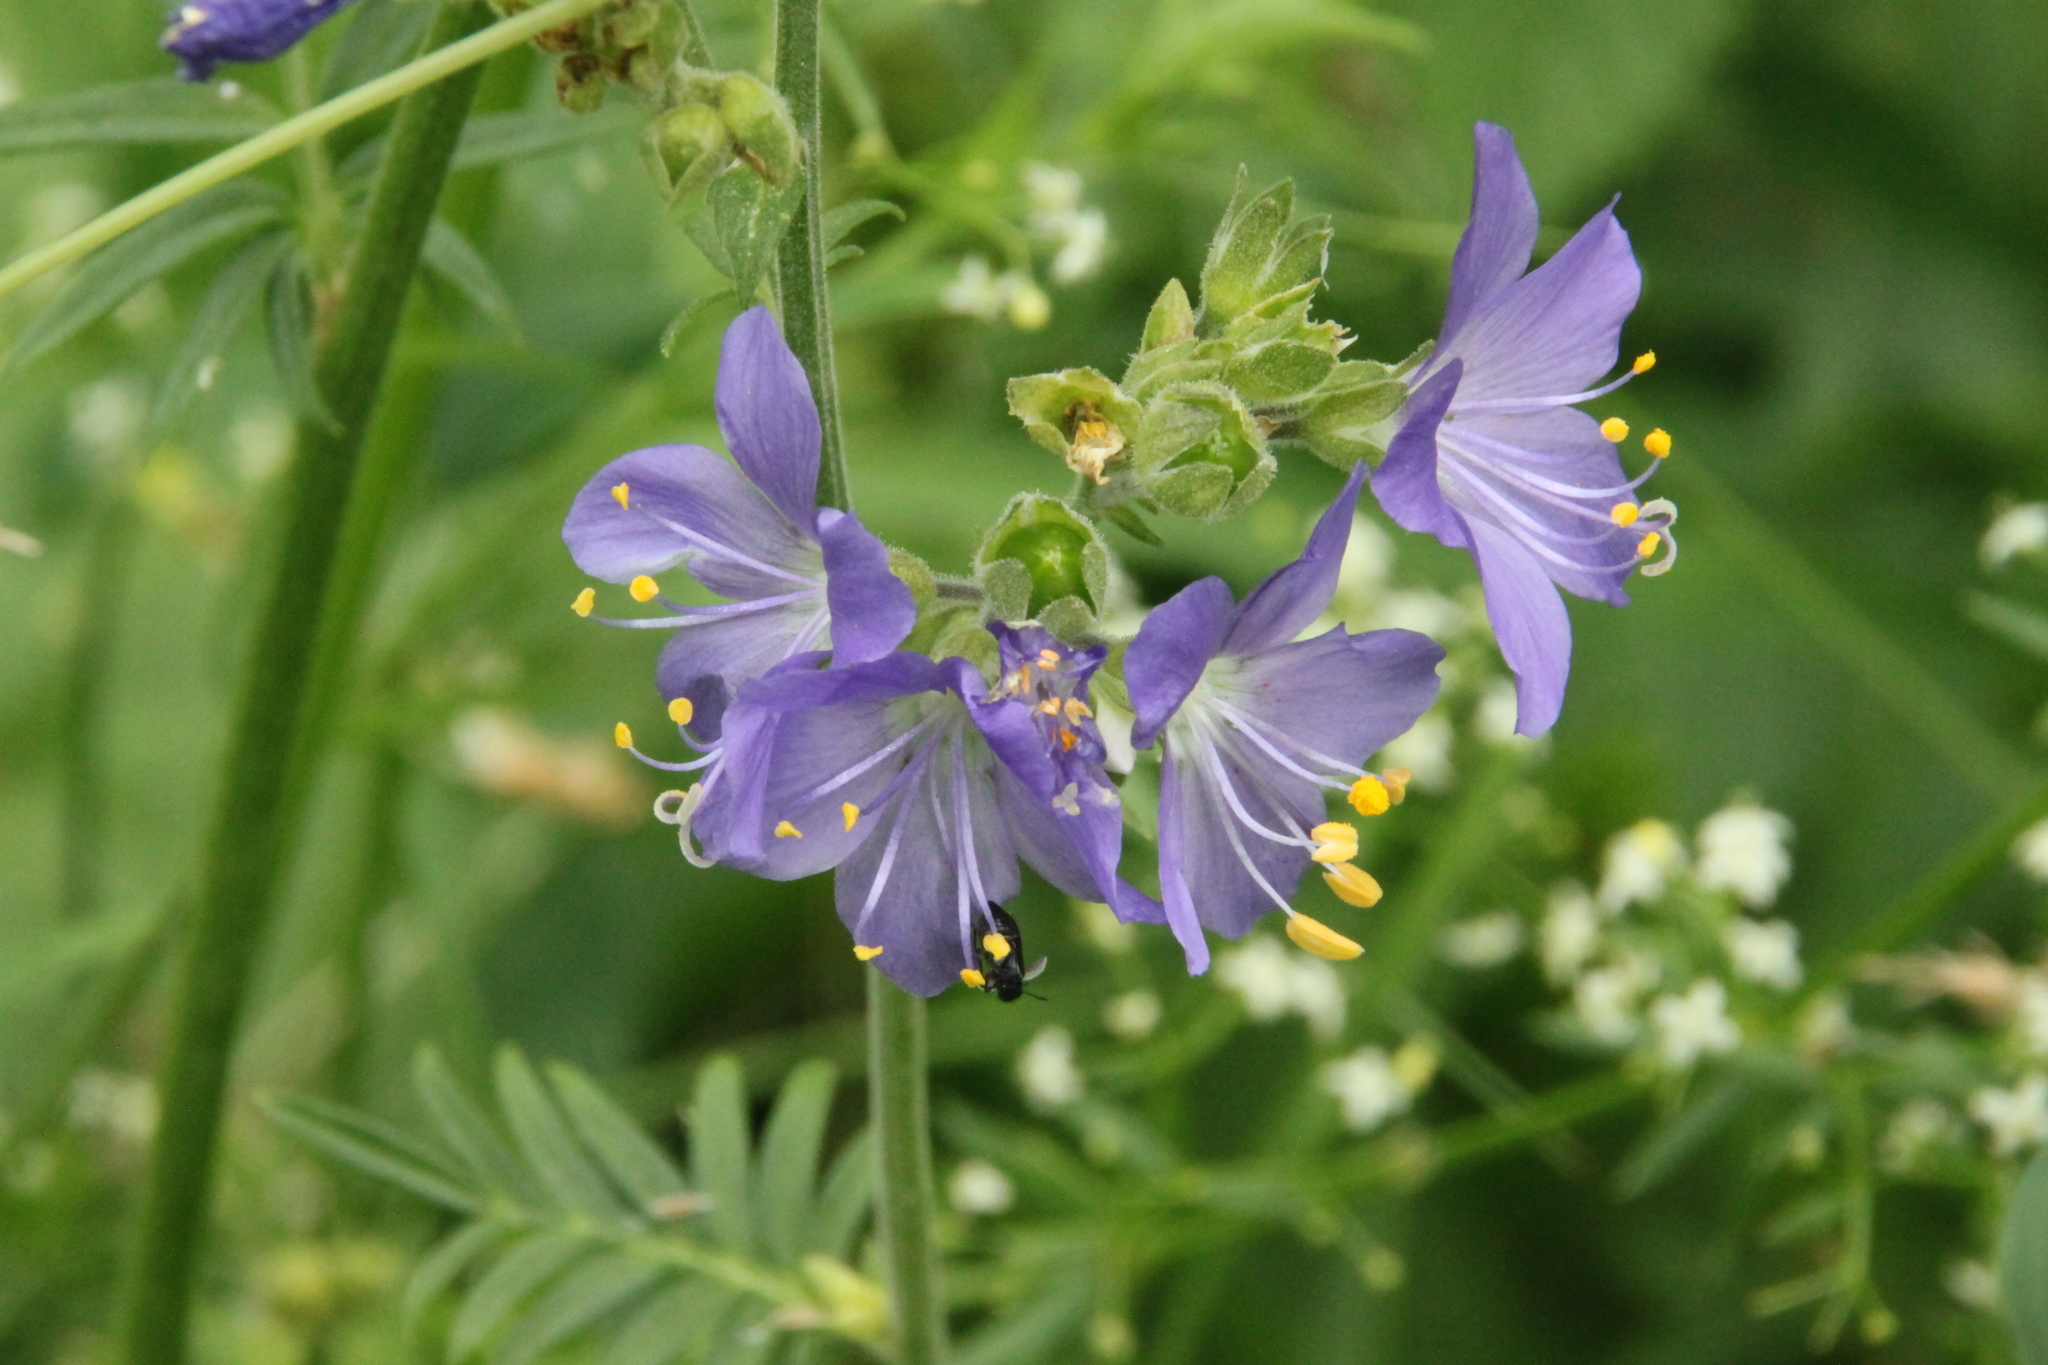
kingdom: Plantae
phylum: Tracheophyta
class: Magnoliopsida
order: Ericales
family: Polemoniaceae
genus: Polemonium
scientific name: Polemonium caeruleum
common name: Jacob's-ladder
